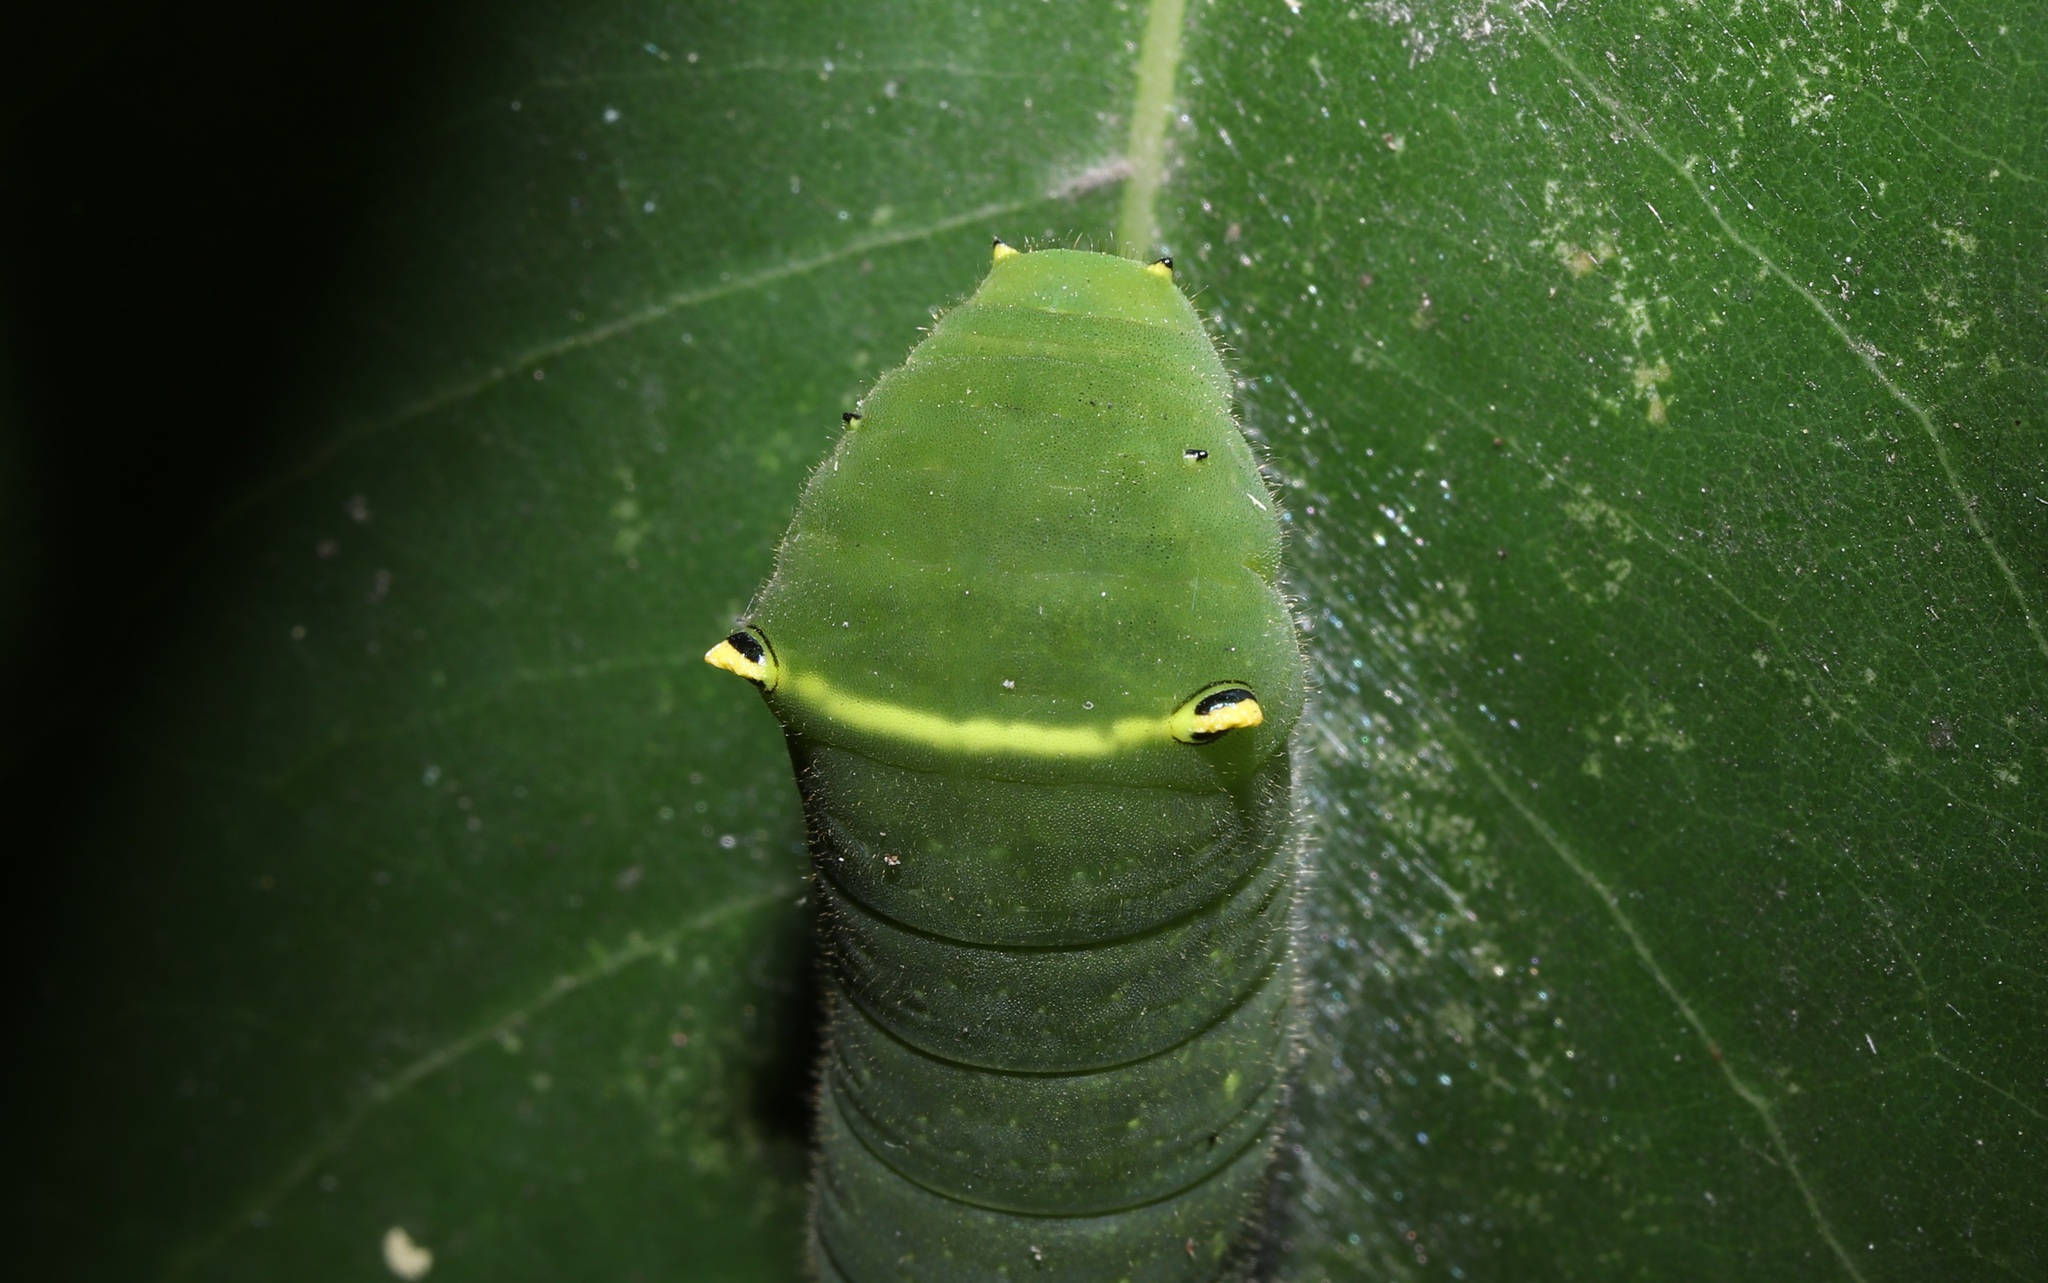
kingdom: Fungi
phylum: Ascomycota
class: Sordariomycetes
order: Microascales
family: Microascaceae
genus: Graphium
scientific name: Graphium sarpedon
